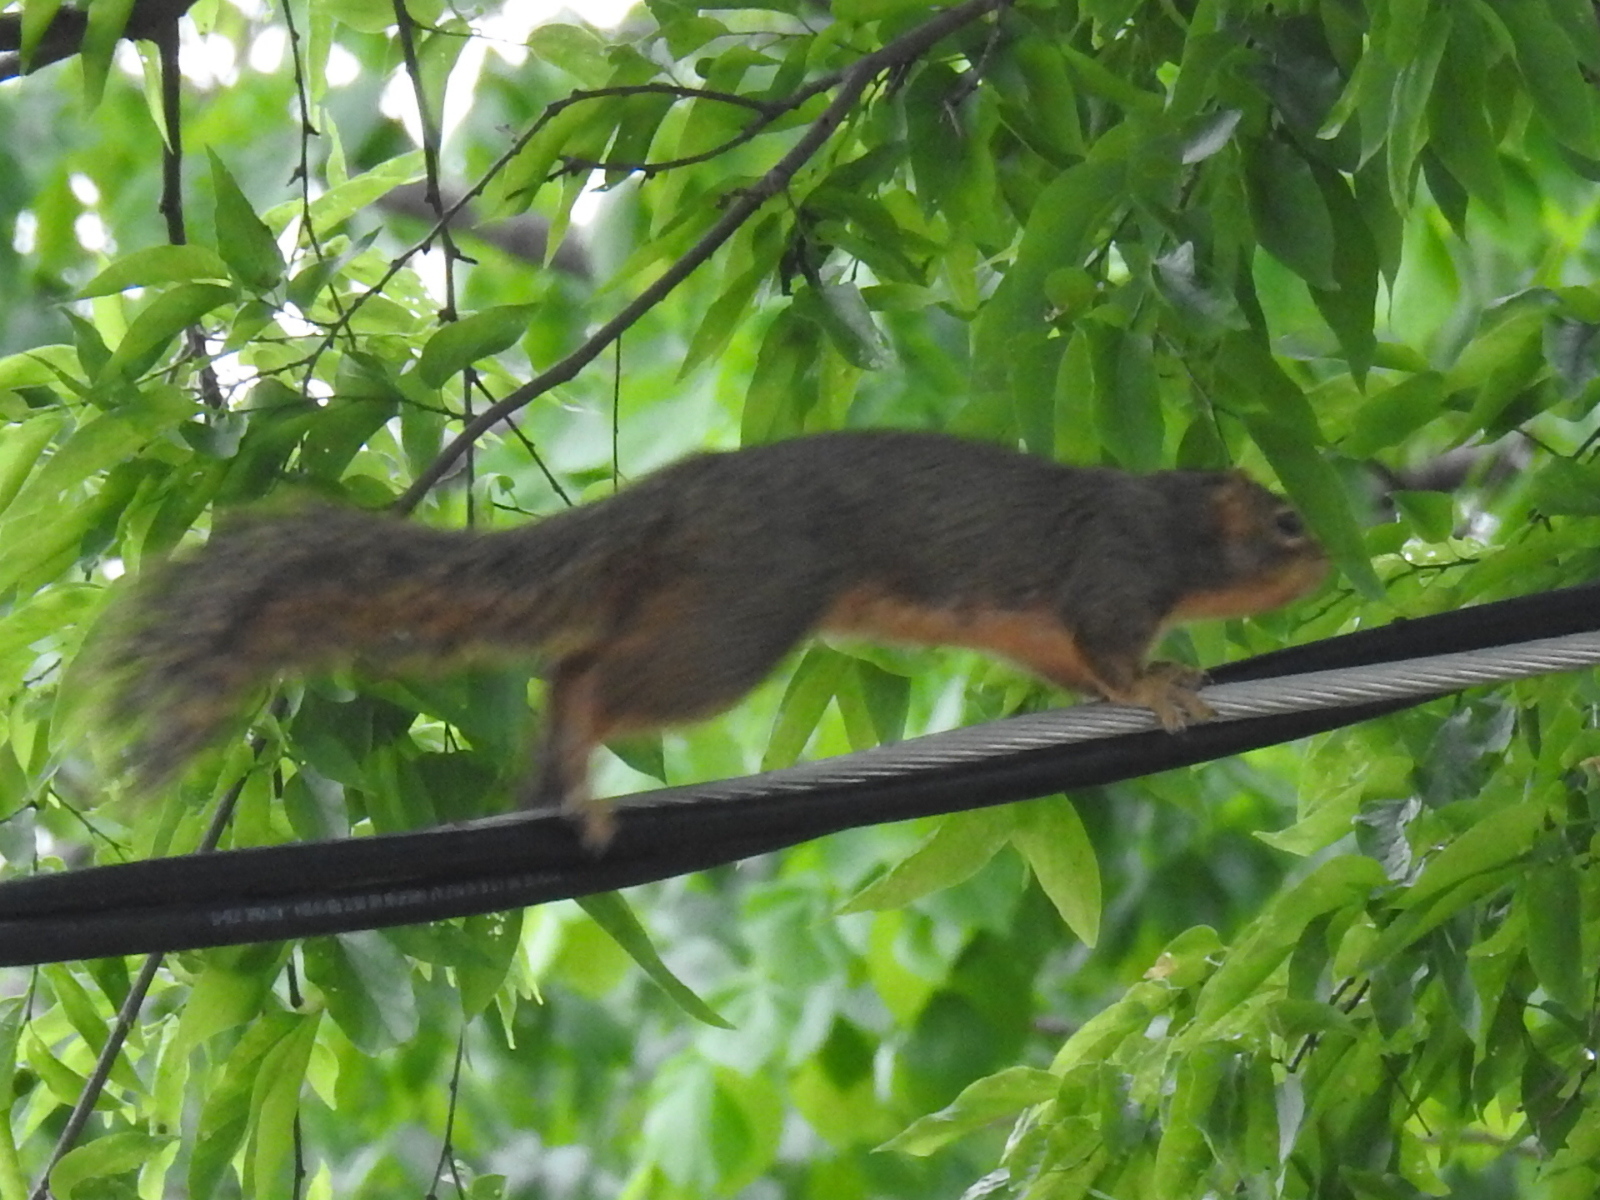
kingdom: Animalia
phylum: Chordata
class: Mammalia
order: Rodentia
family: Sciuridae
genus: Sciurus
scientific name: Sciurus niger
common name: Fox squirrel
